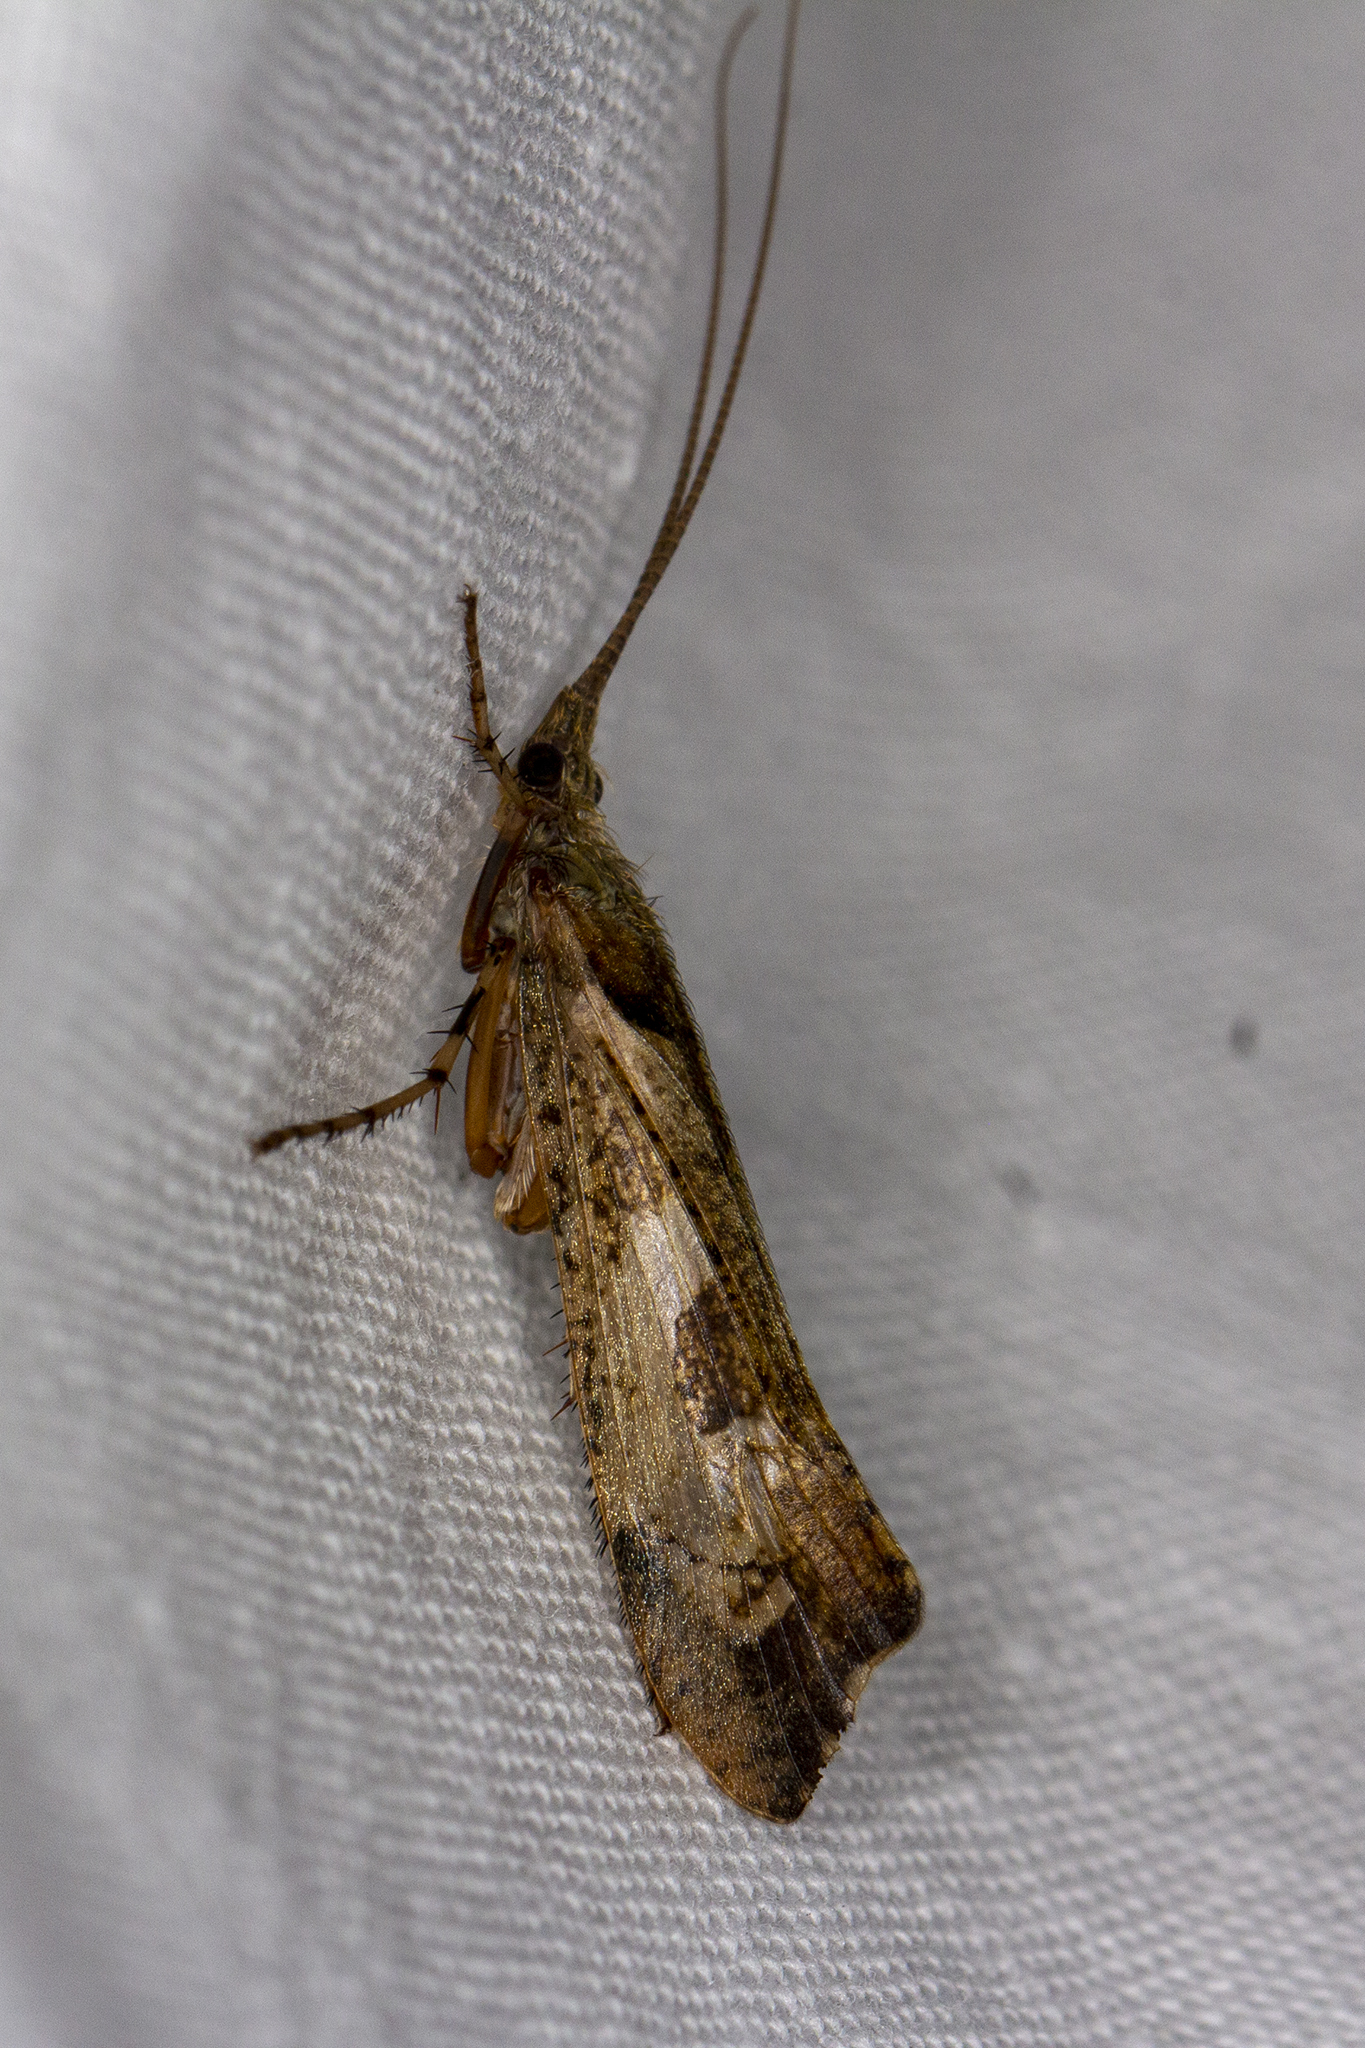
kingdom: Animalia
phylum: Arthropoda
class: Insecta
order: Trichoptera
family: Limnephilidae
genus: Glyphotaelius
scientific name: Glyphotaelius pellucidus
